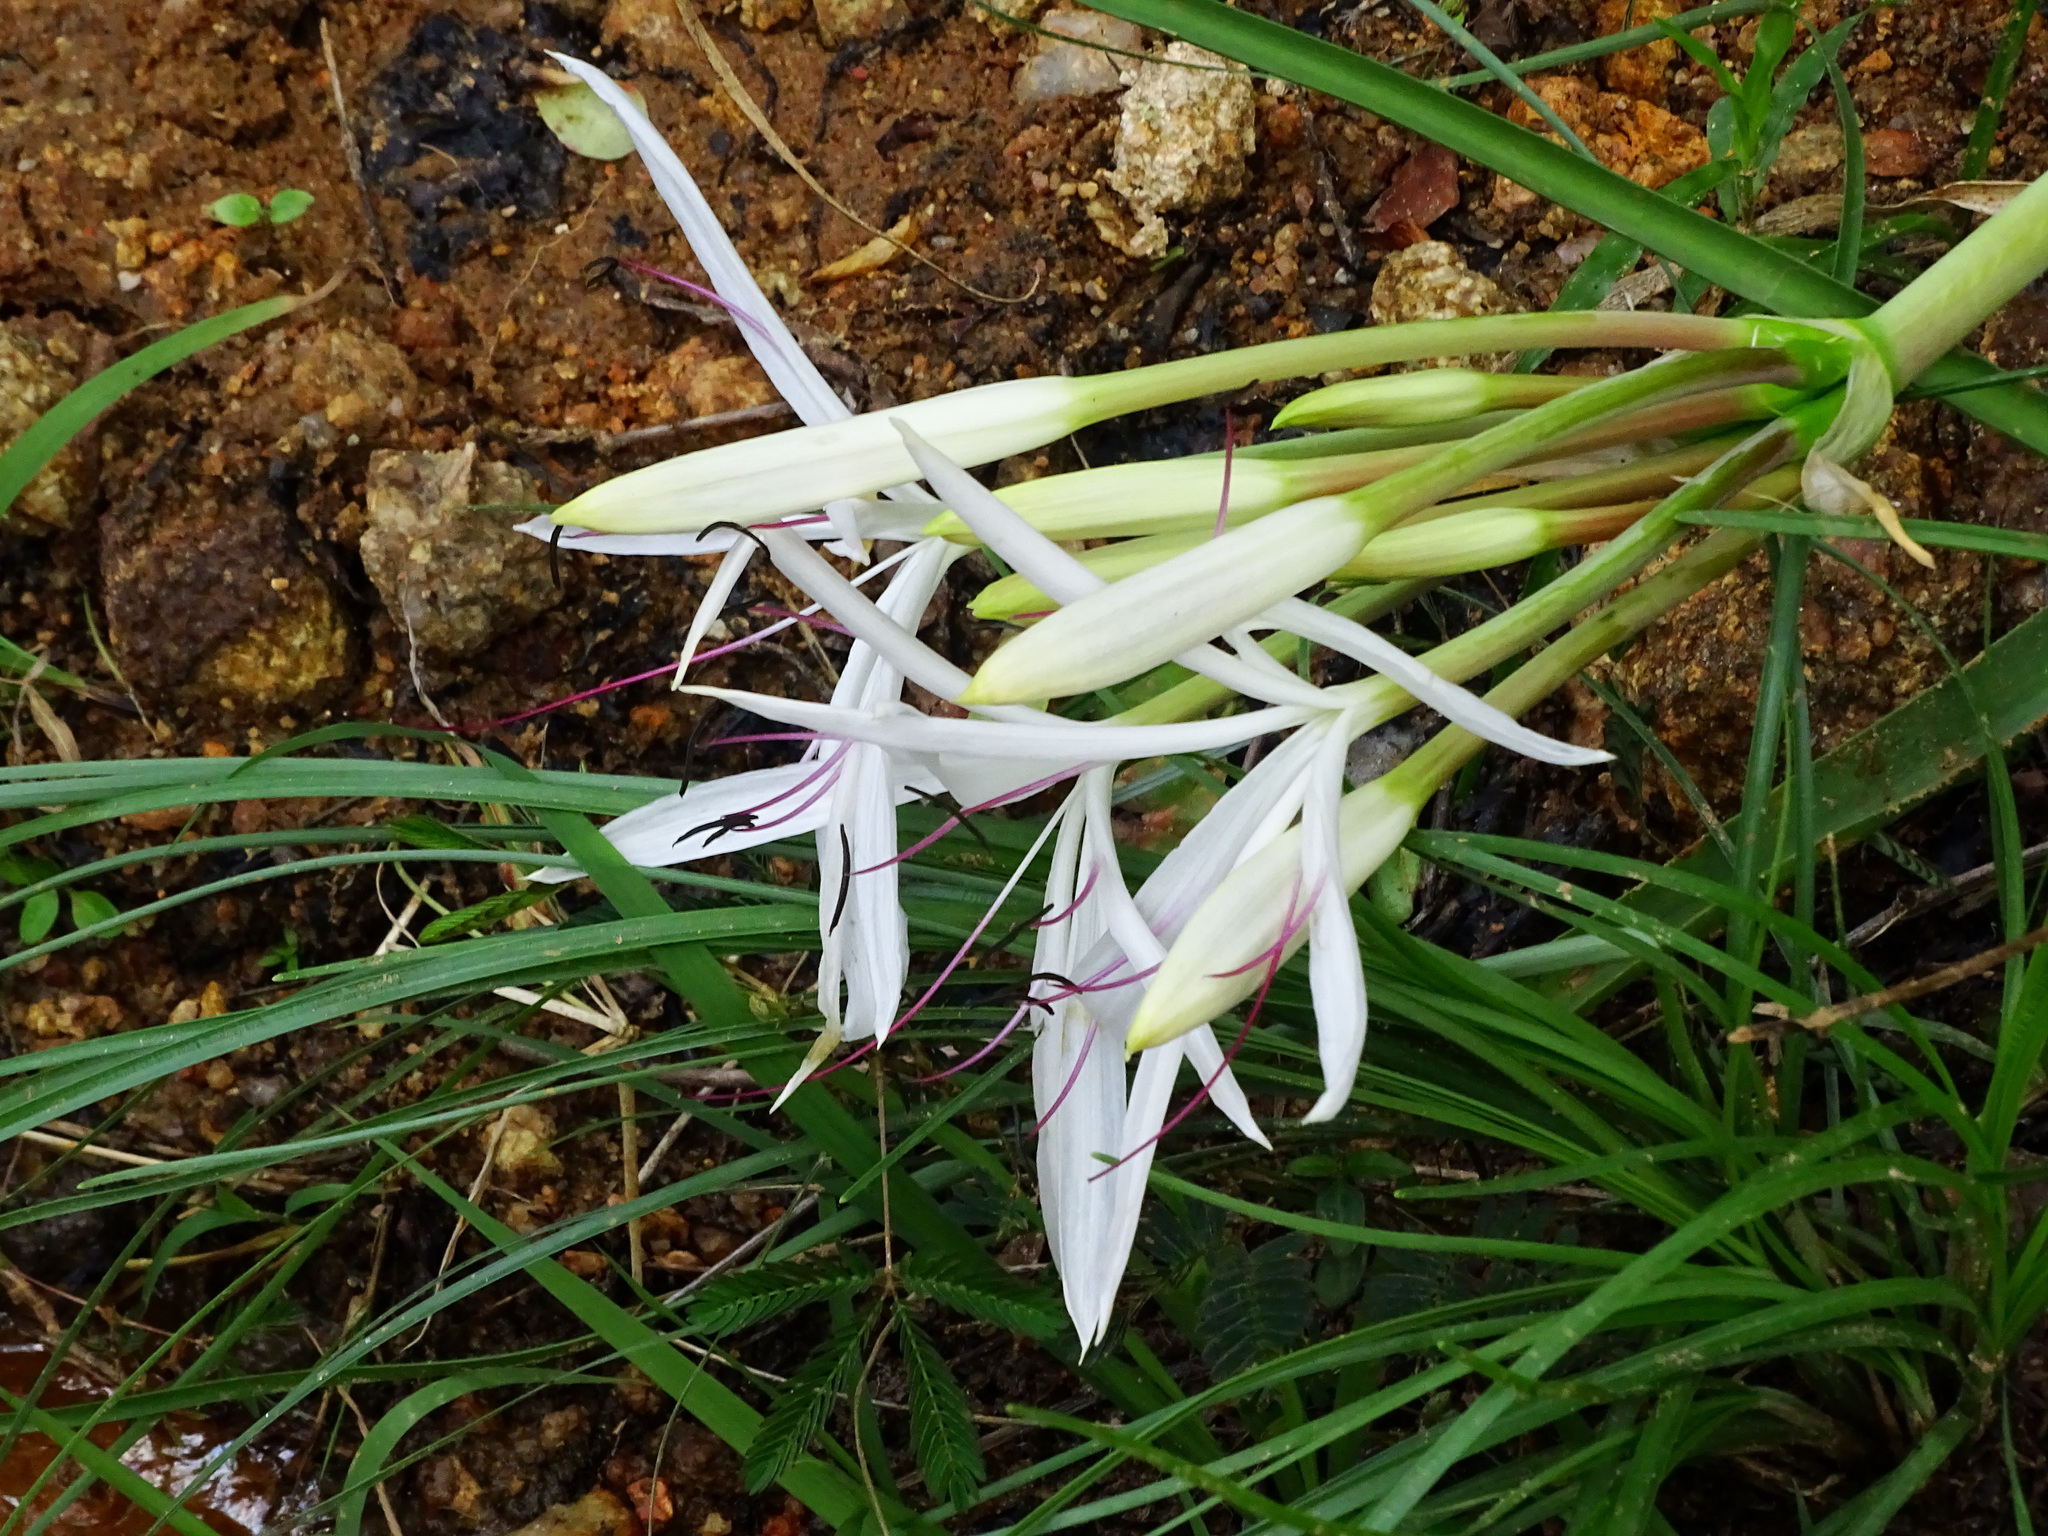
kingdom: Plantae
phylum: Tracheophyta
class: Liliopsida
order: Asparagales
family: Amaryllidaceae
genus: Crinum
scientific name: Crinum asiaticum
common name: Poisonbulb
